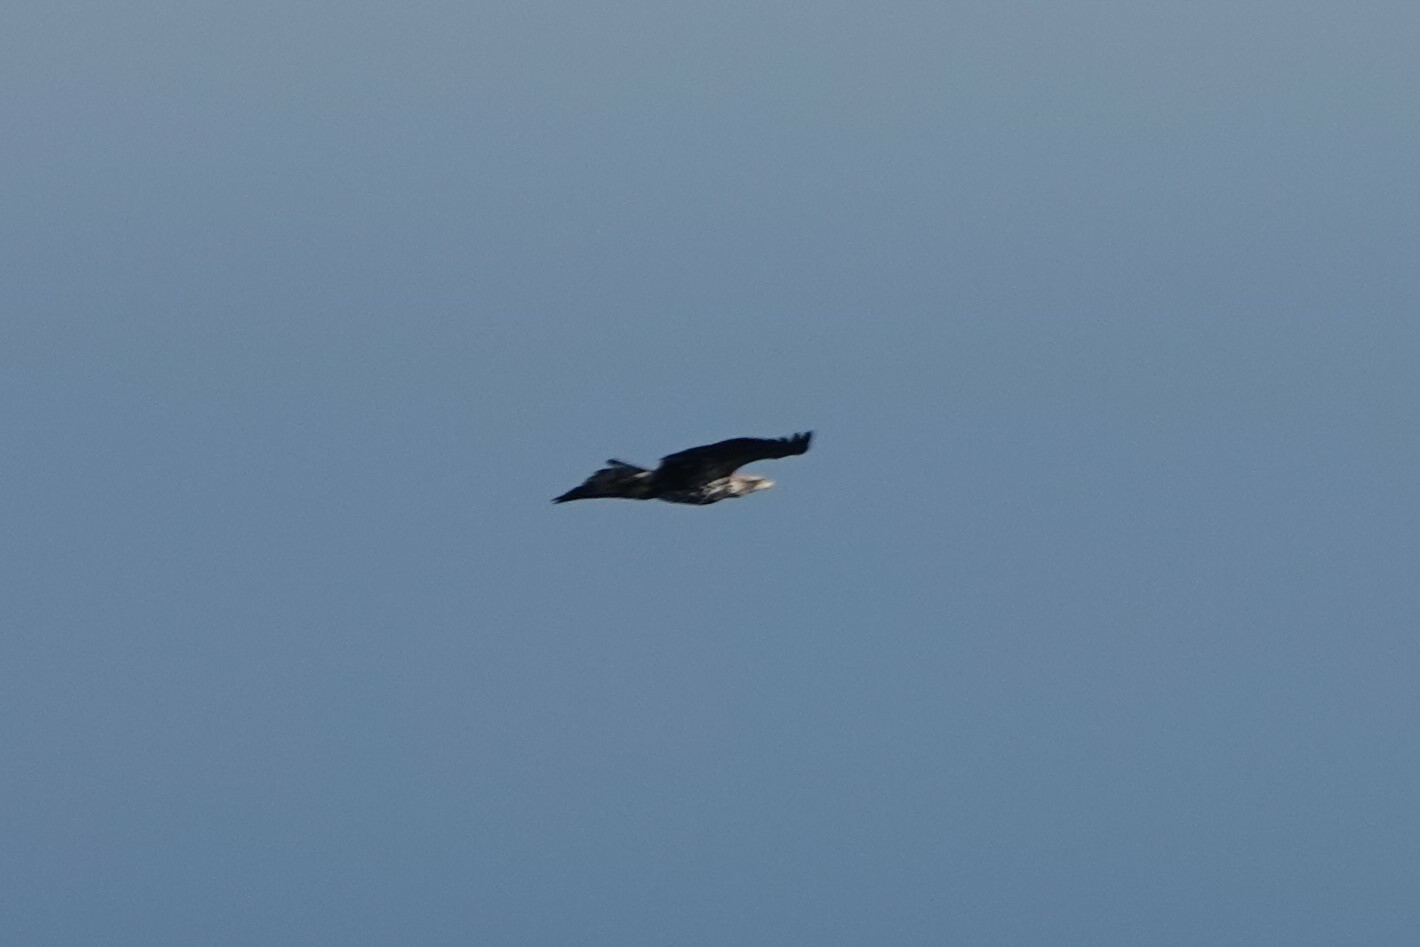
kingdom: Animalia
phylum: Chordata
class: Aves
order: Accipitriformes
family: Accipitridae
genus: Haliaeetus
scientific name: Haliaeetus leucocephalus
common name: Bald eagle
